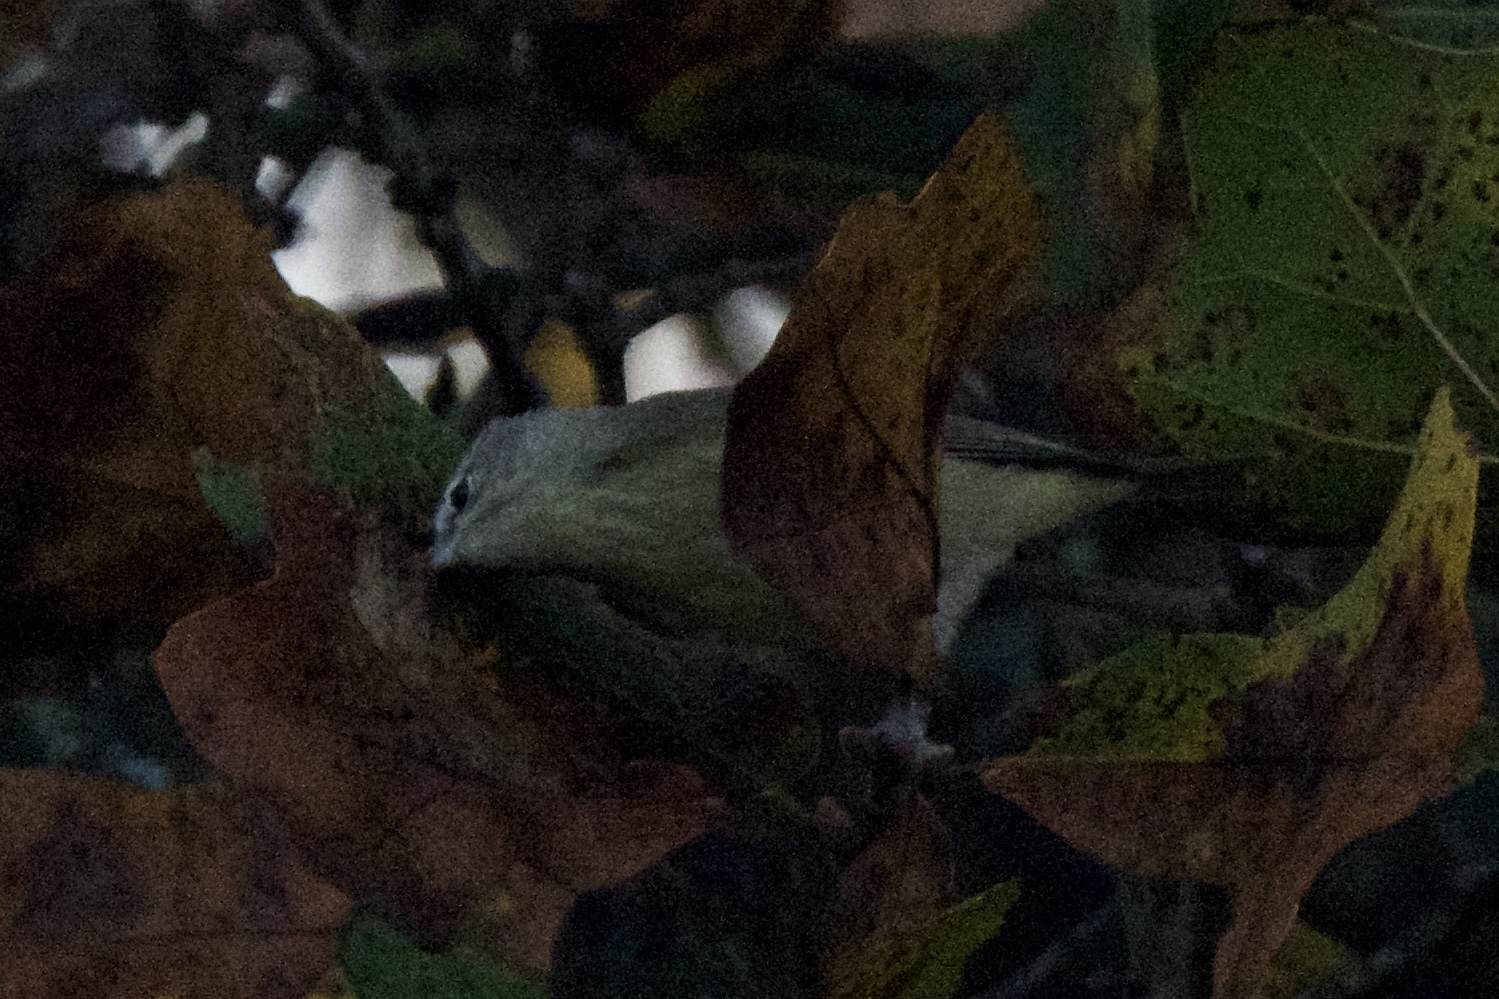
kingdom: Animalia
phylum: Chordata
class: Aves
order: Passeriformes
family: Parulidae
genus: Leiothlypis
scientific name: Leiothlypis celata
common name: Orange-crowned warbler
